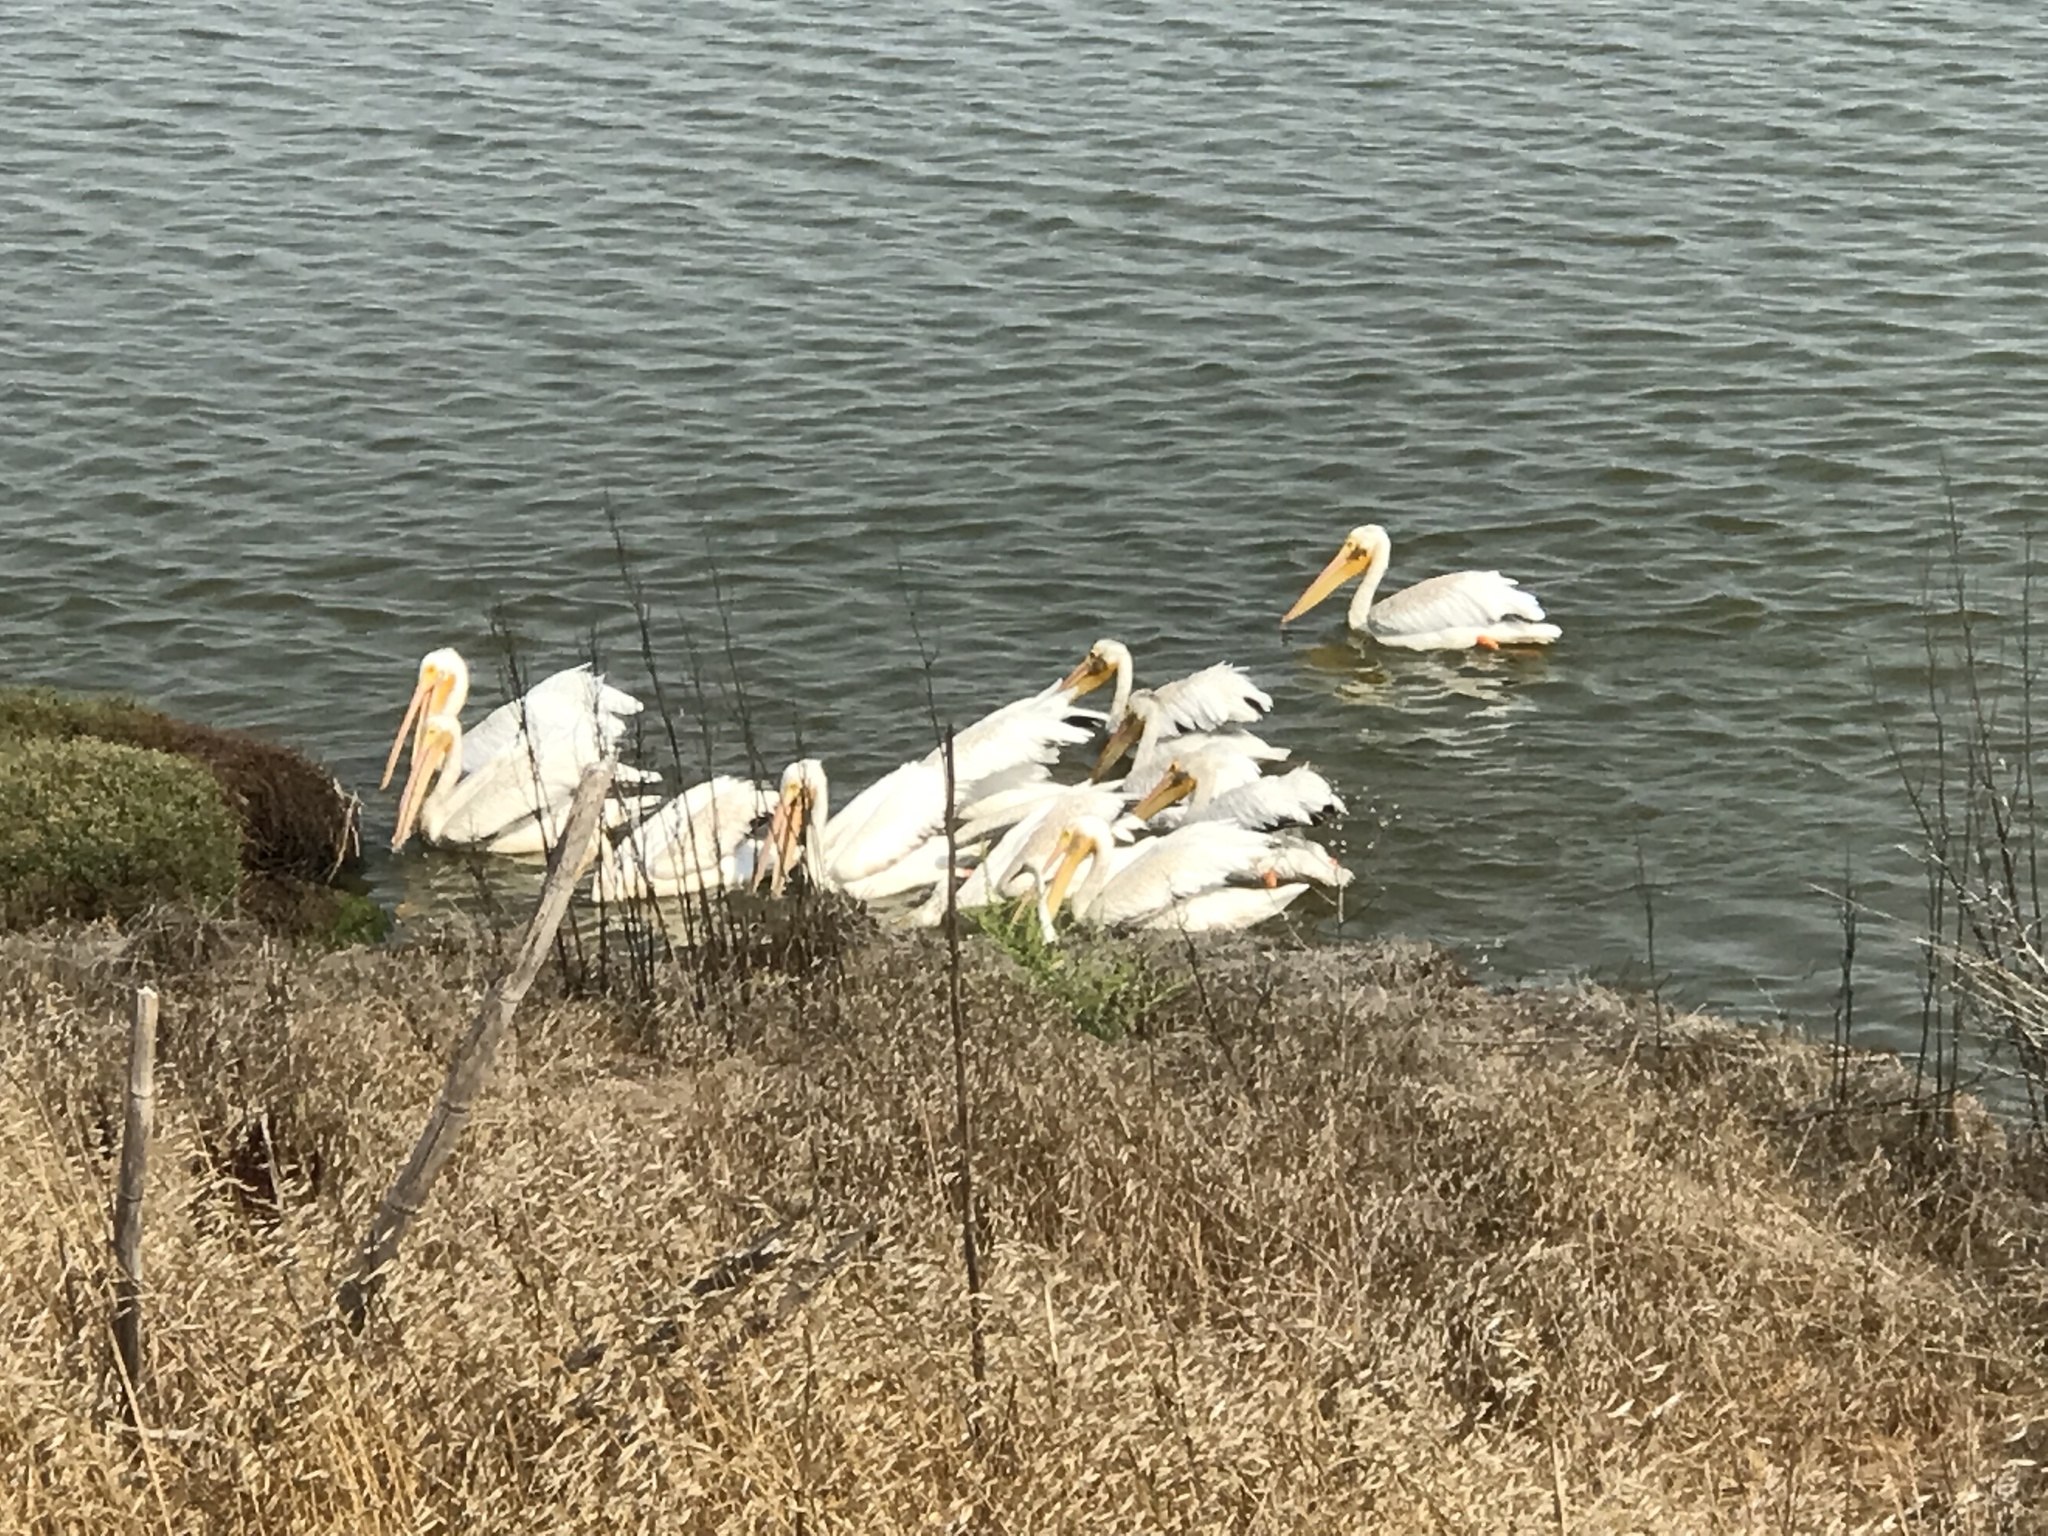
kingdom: Animalia
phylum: Chordata
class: Aves
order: Pelecaniformes
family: Pelecanidae
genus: Pelecanus
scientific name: Pelecanus erythrorhynchos
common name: American white pelican
